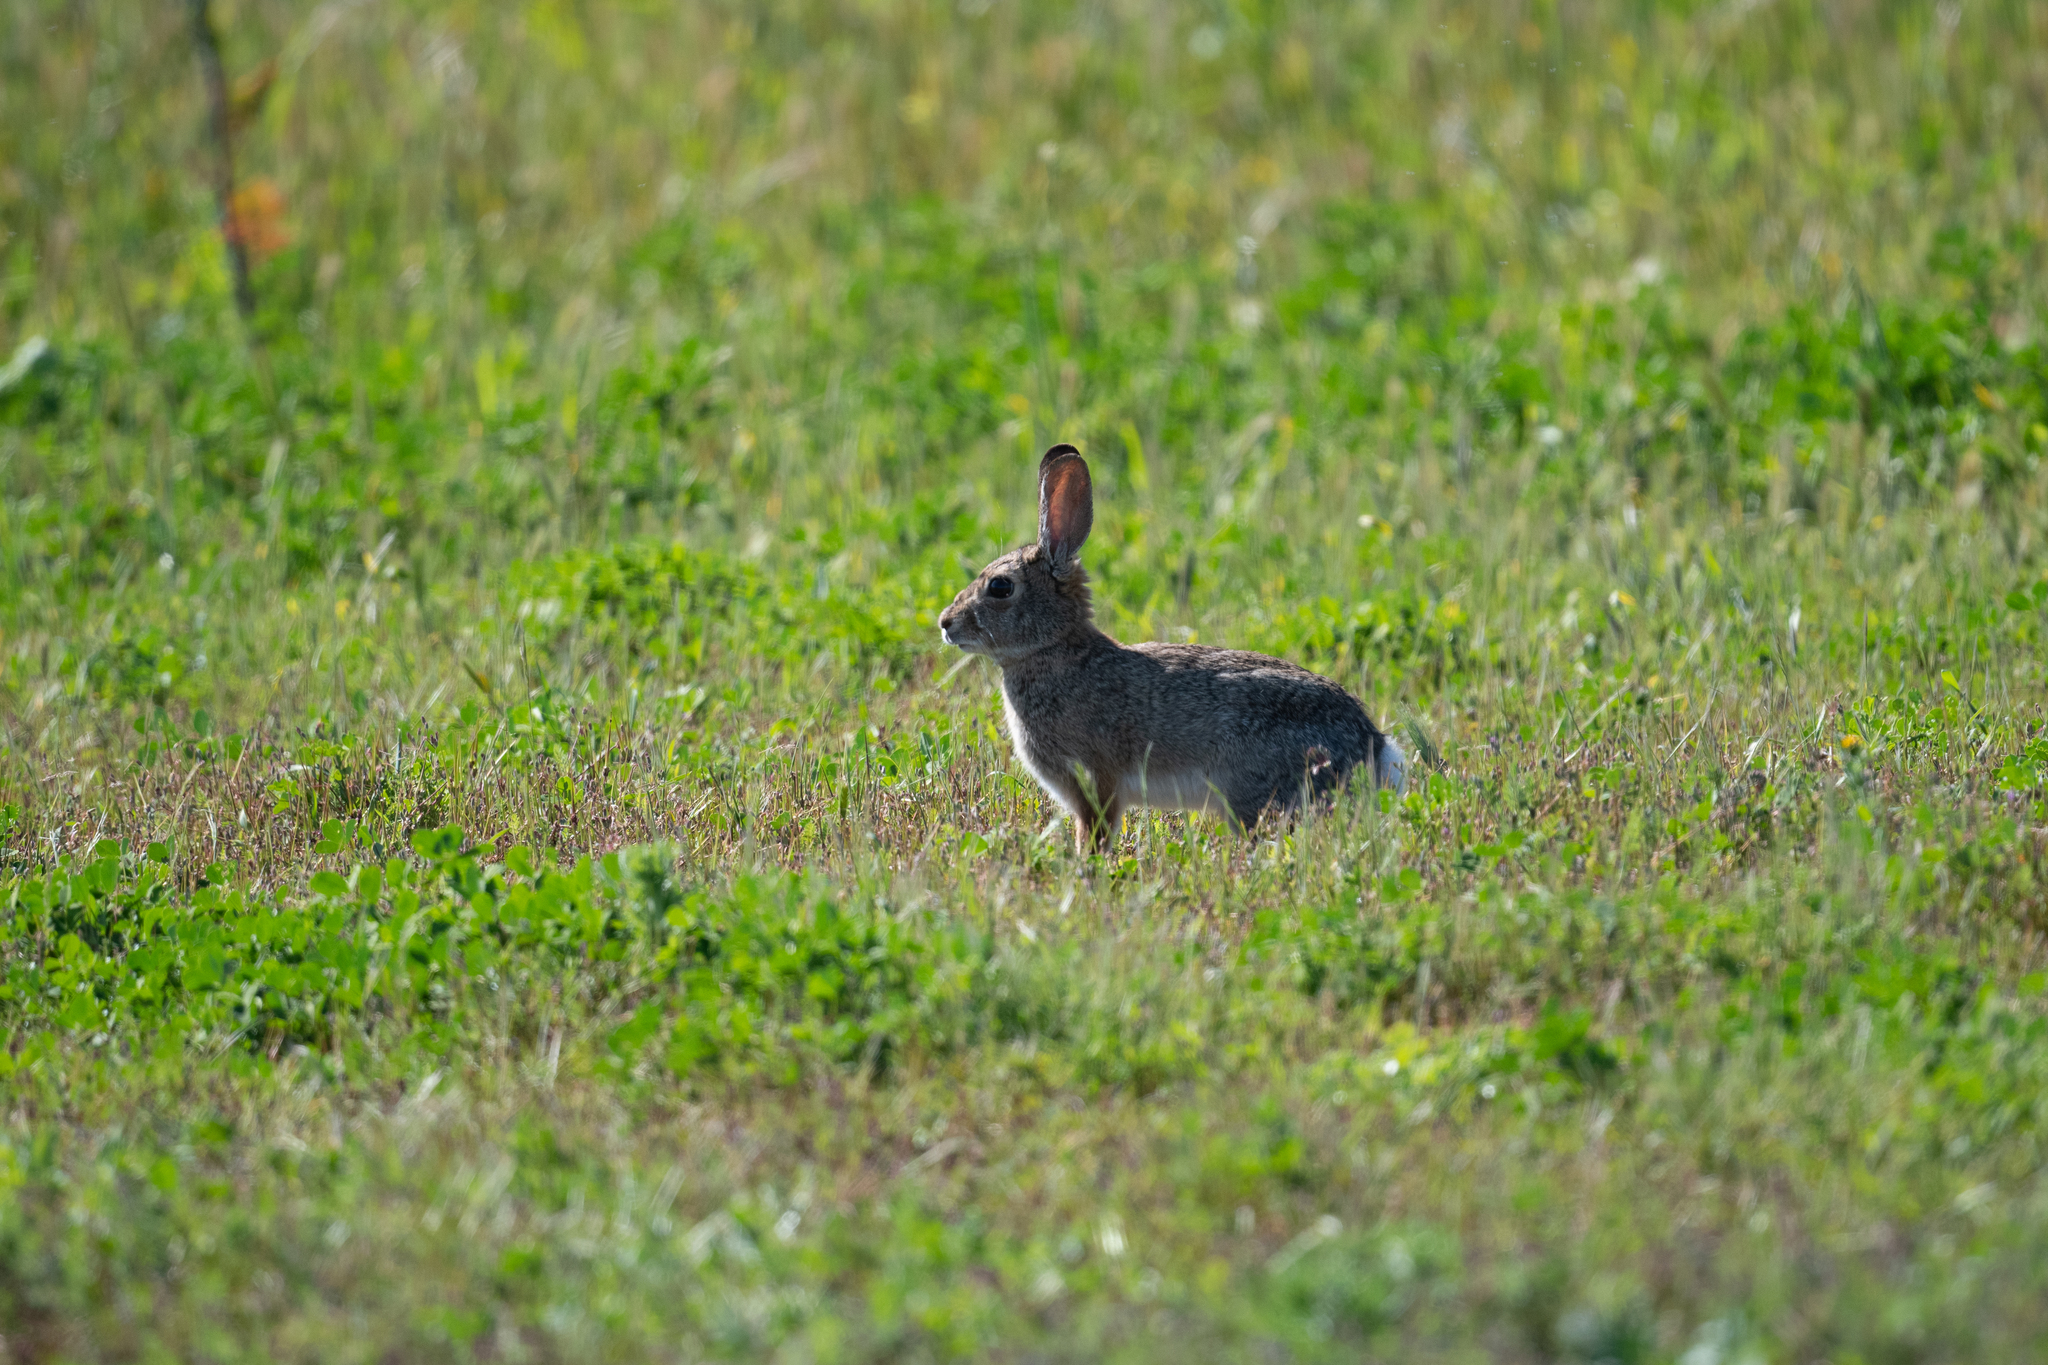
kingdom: Animalia
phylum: Chordata
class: Mammalia
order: Lagomorpha
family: Leporidae
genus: Sylvilagus
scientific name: Sylvilagus audubonii
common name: Desert cottontail
